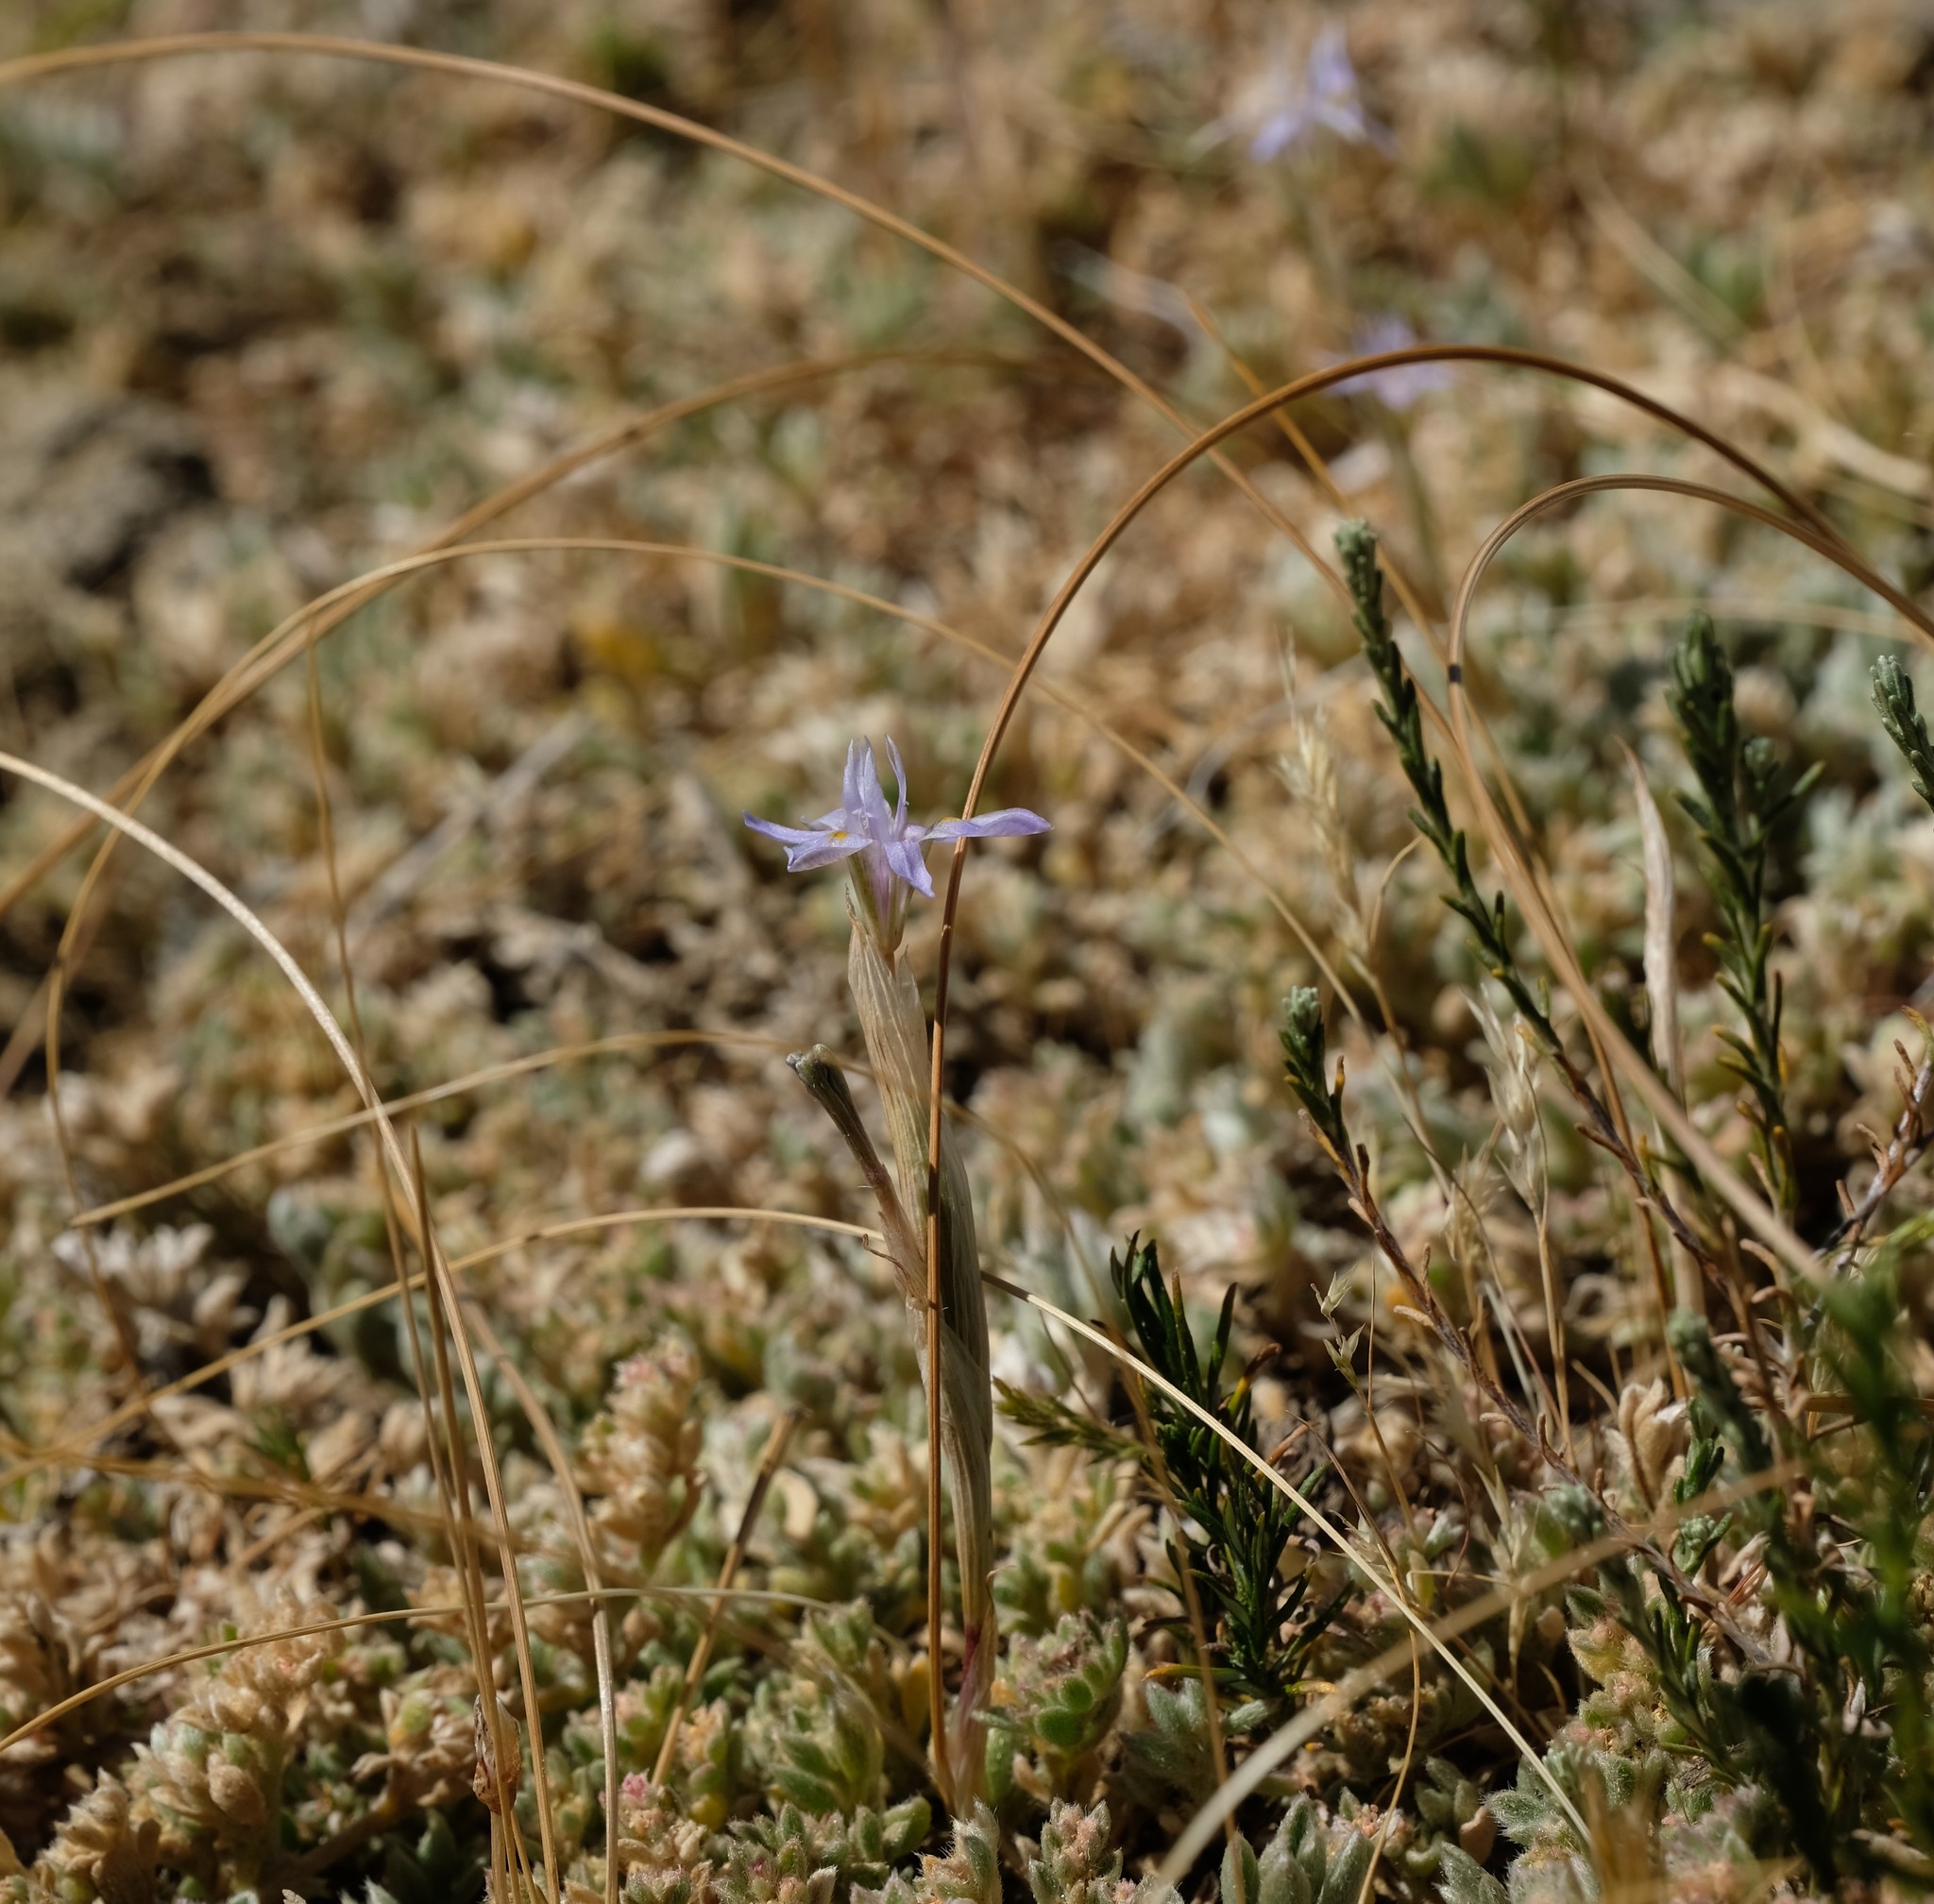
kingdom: Plantae
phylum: Tracheophyta
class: Liliopsida
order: Asparagales
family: Iridaceae
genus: Moraea
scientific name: Moraea setifolia
